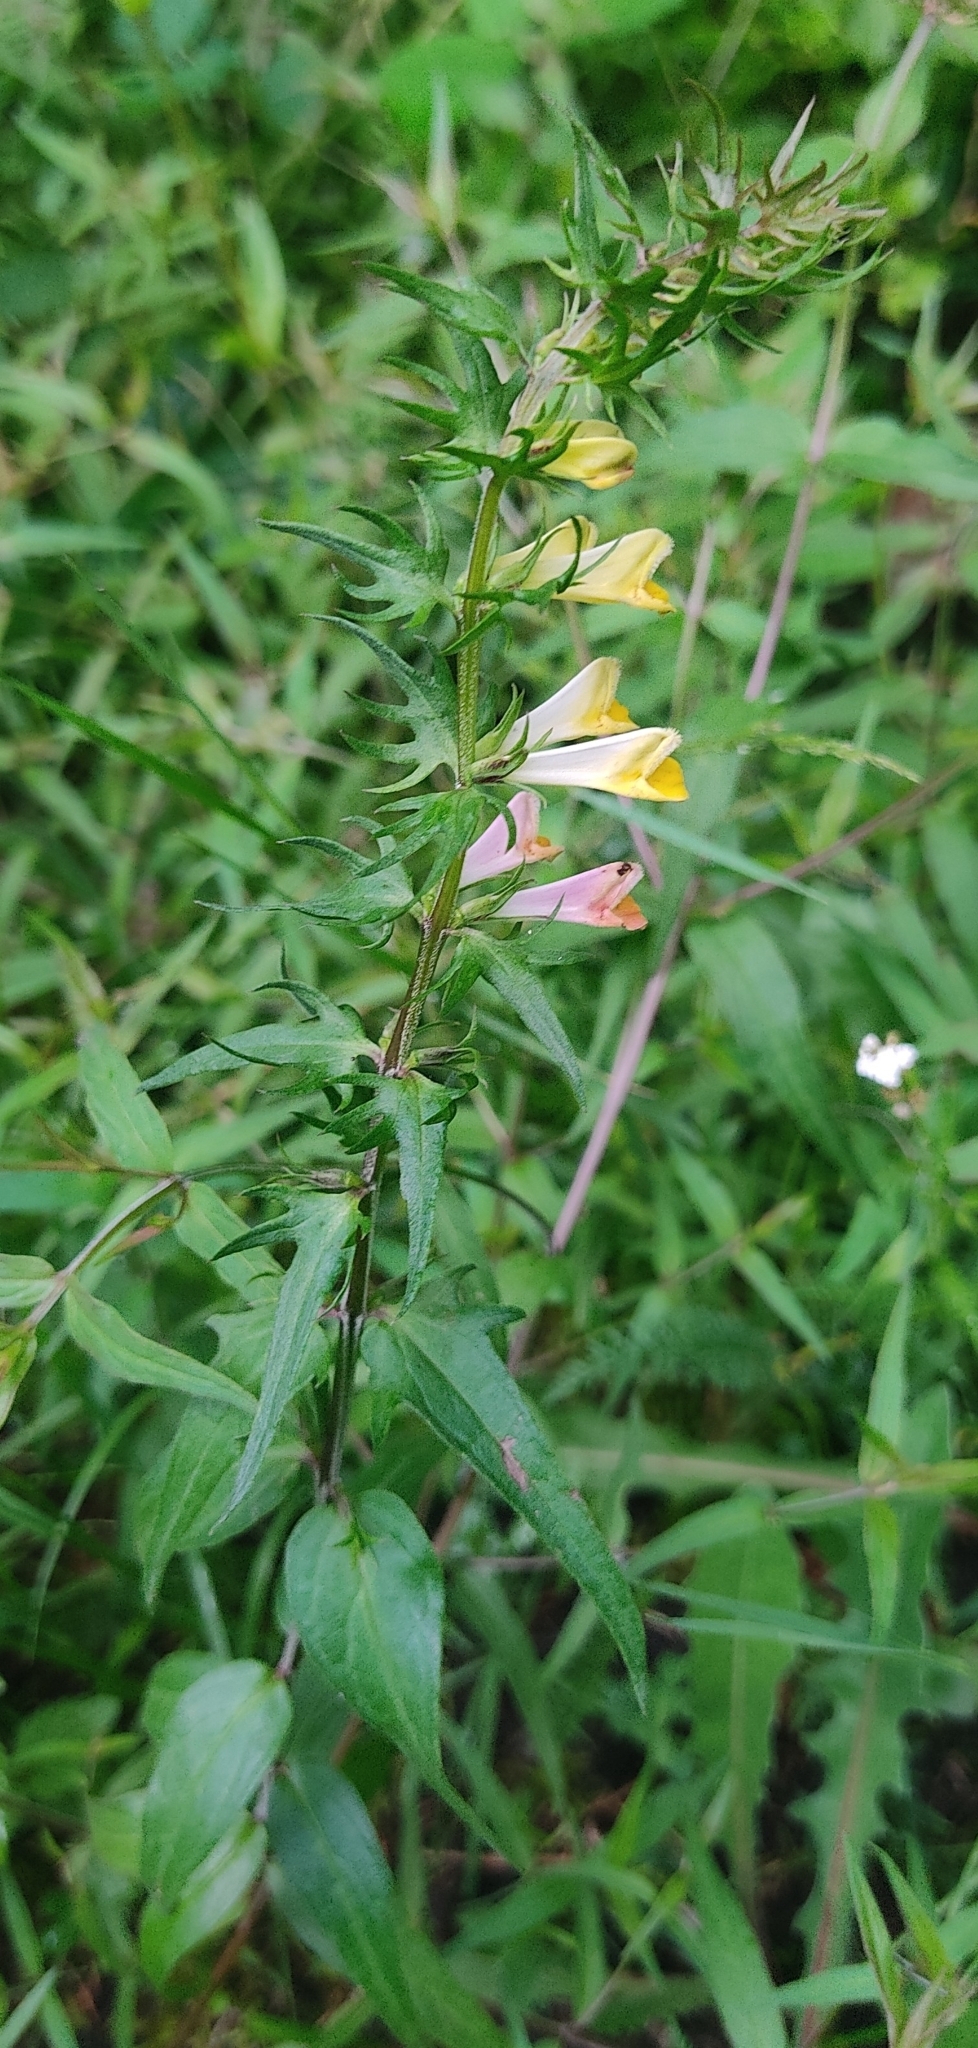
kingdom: Plantae
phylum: Tracheophyta
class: Magnoliopsida
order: Lamiales
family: Orobanchaceae
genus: Melampyrum
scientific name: Melampyrum pratense
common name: Common cow-wheat
